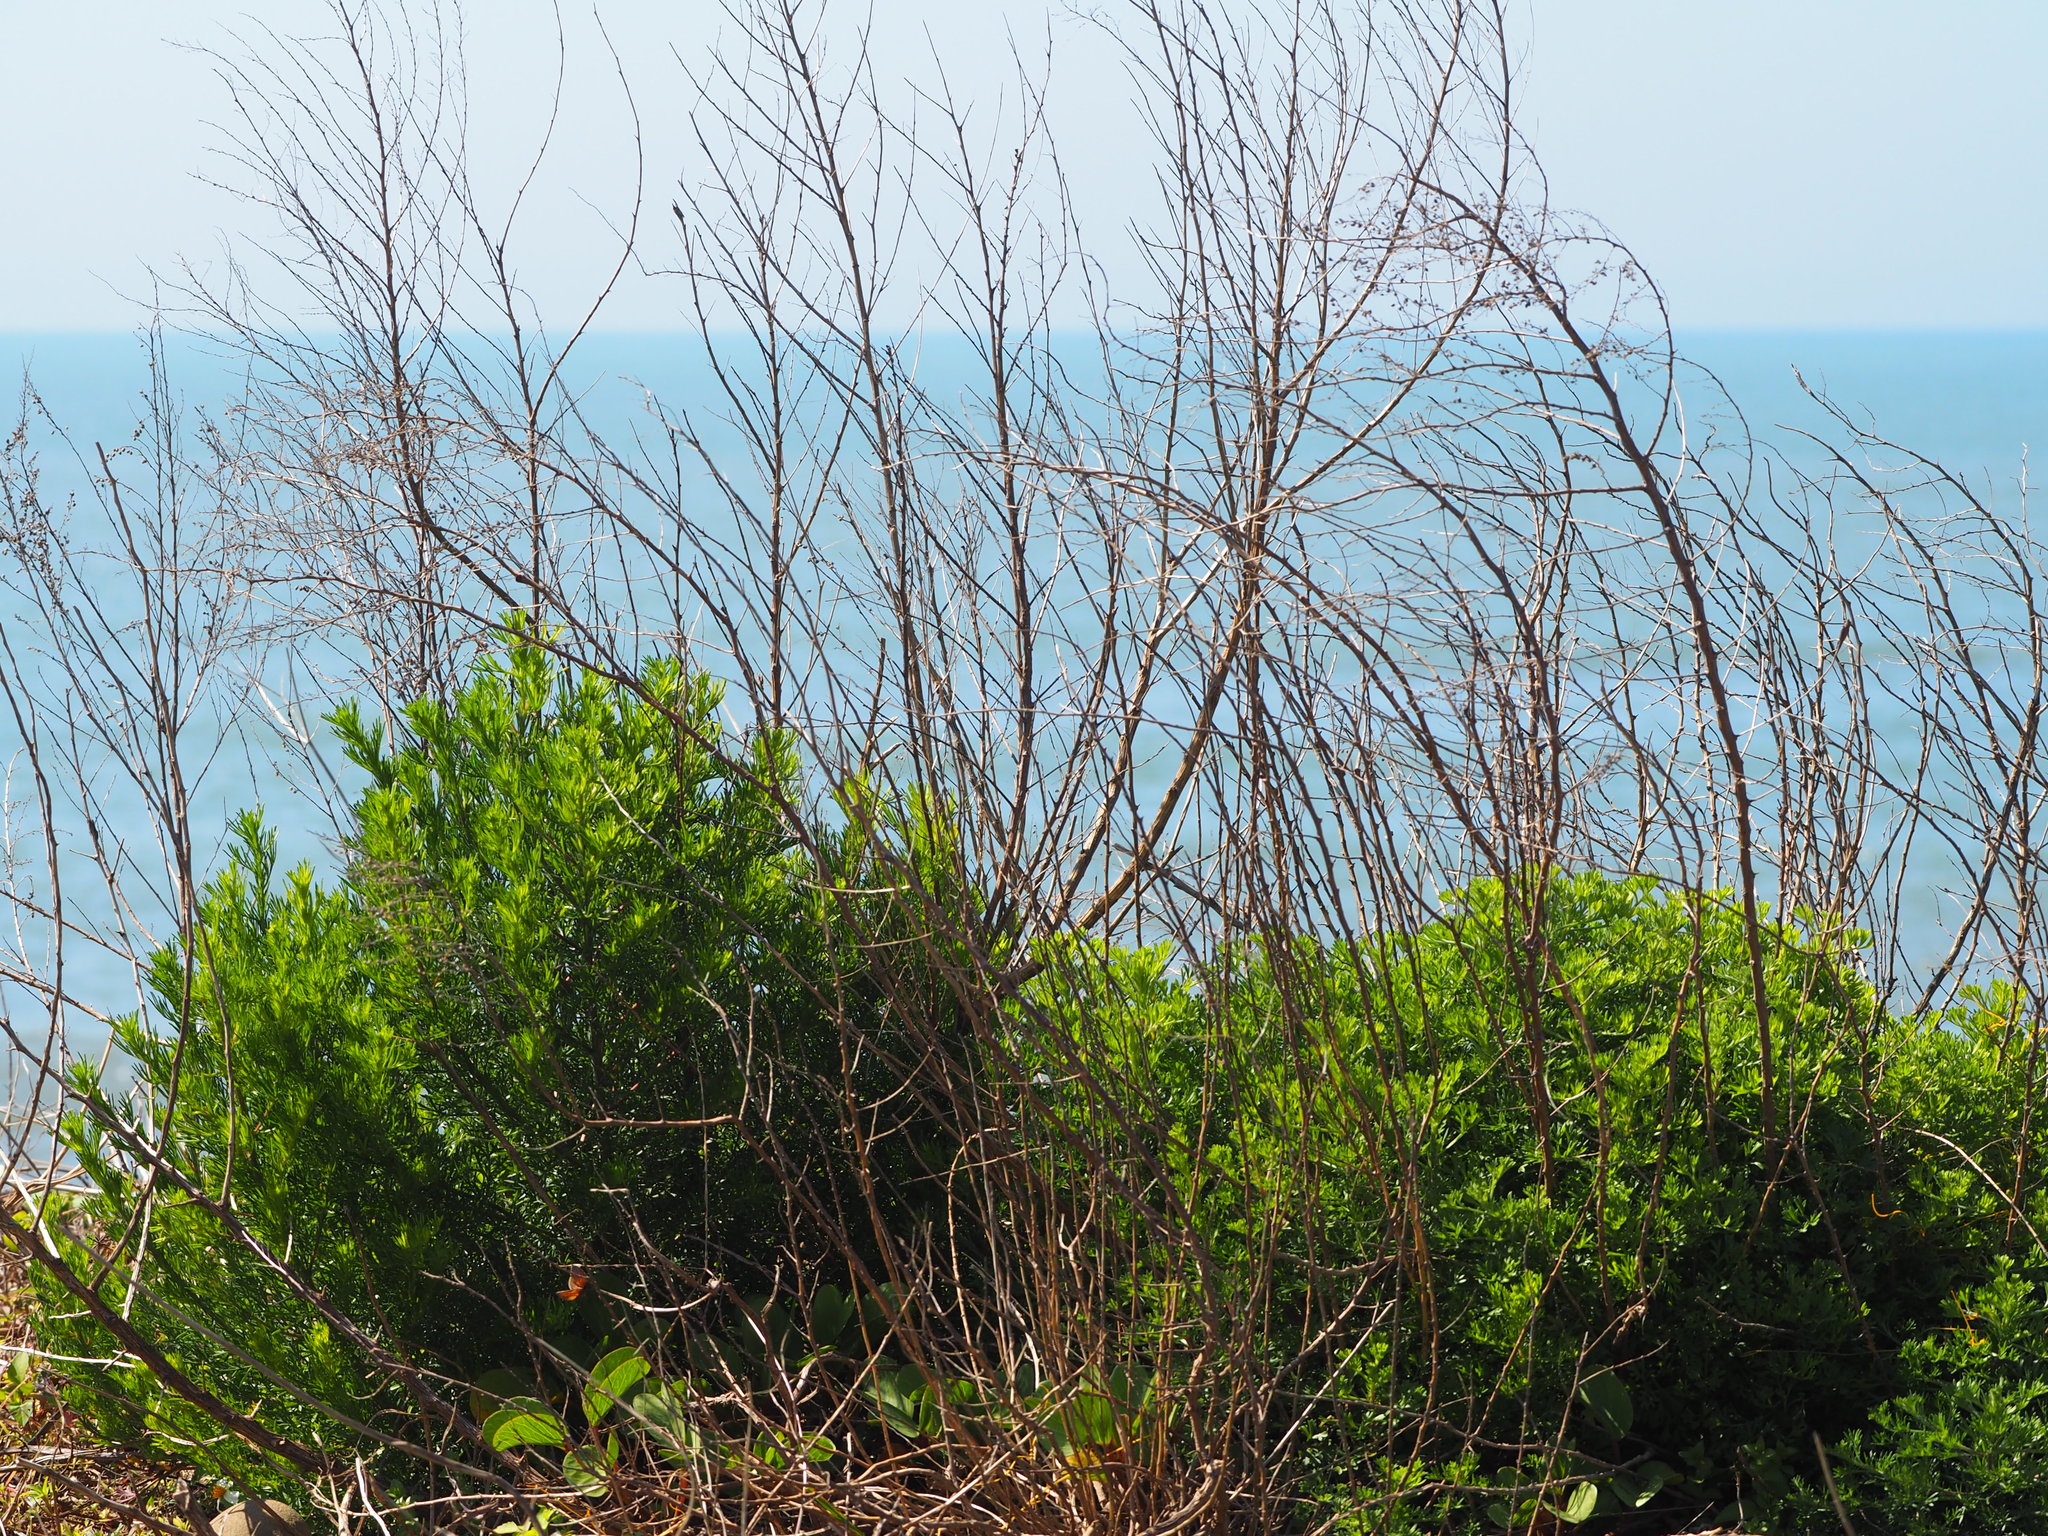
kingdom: Plantae
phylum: Tracheophyta
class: Magnoliopsida
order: Asterales
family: Asteraceae
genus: Artemisia
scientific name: Artemisia capillaris
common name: Yin-chen wormwood
